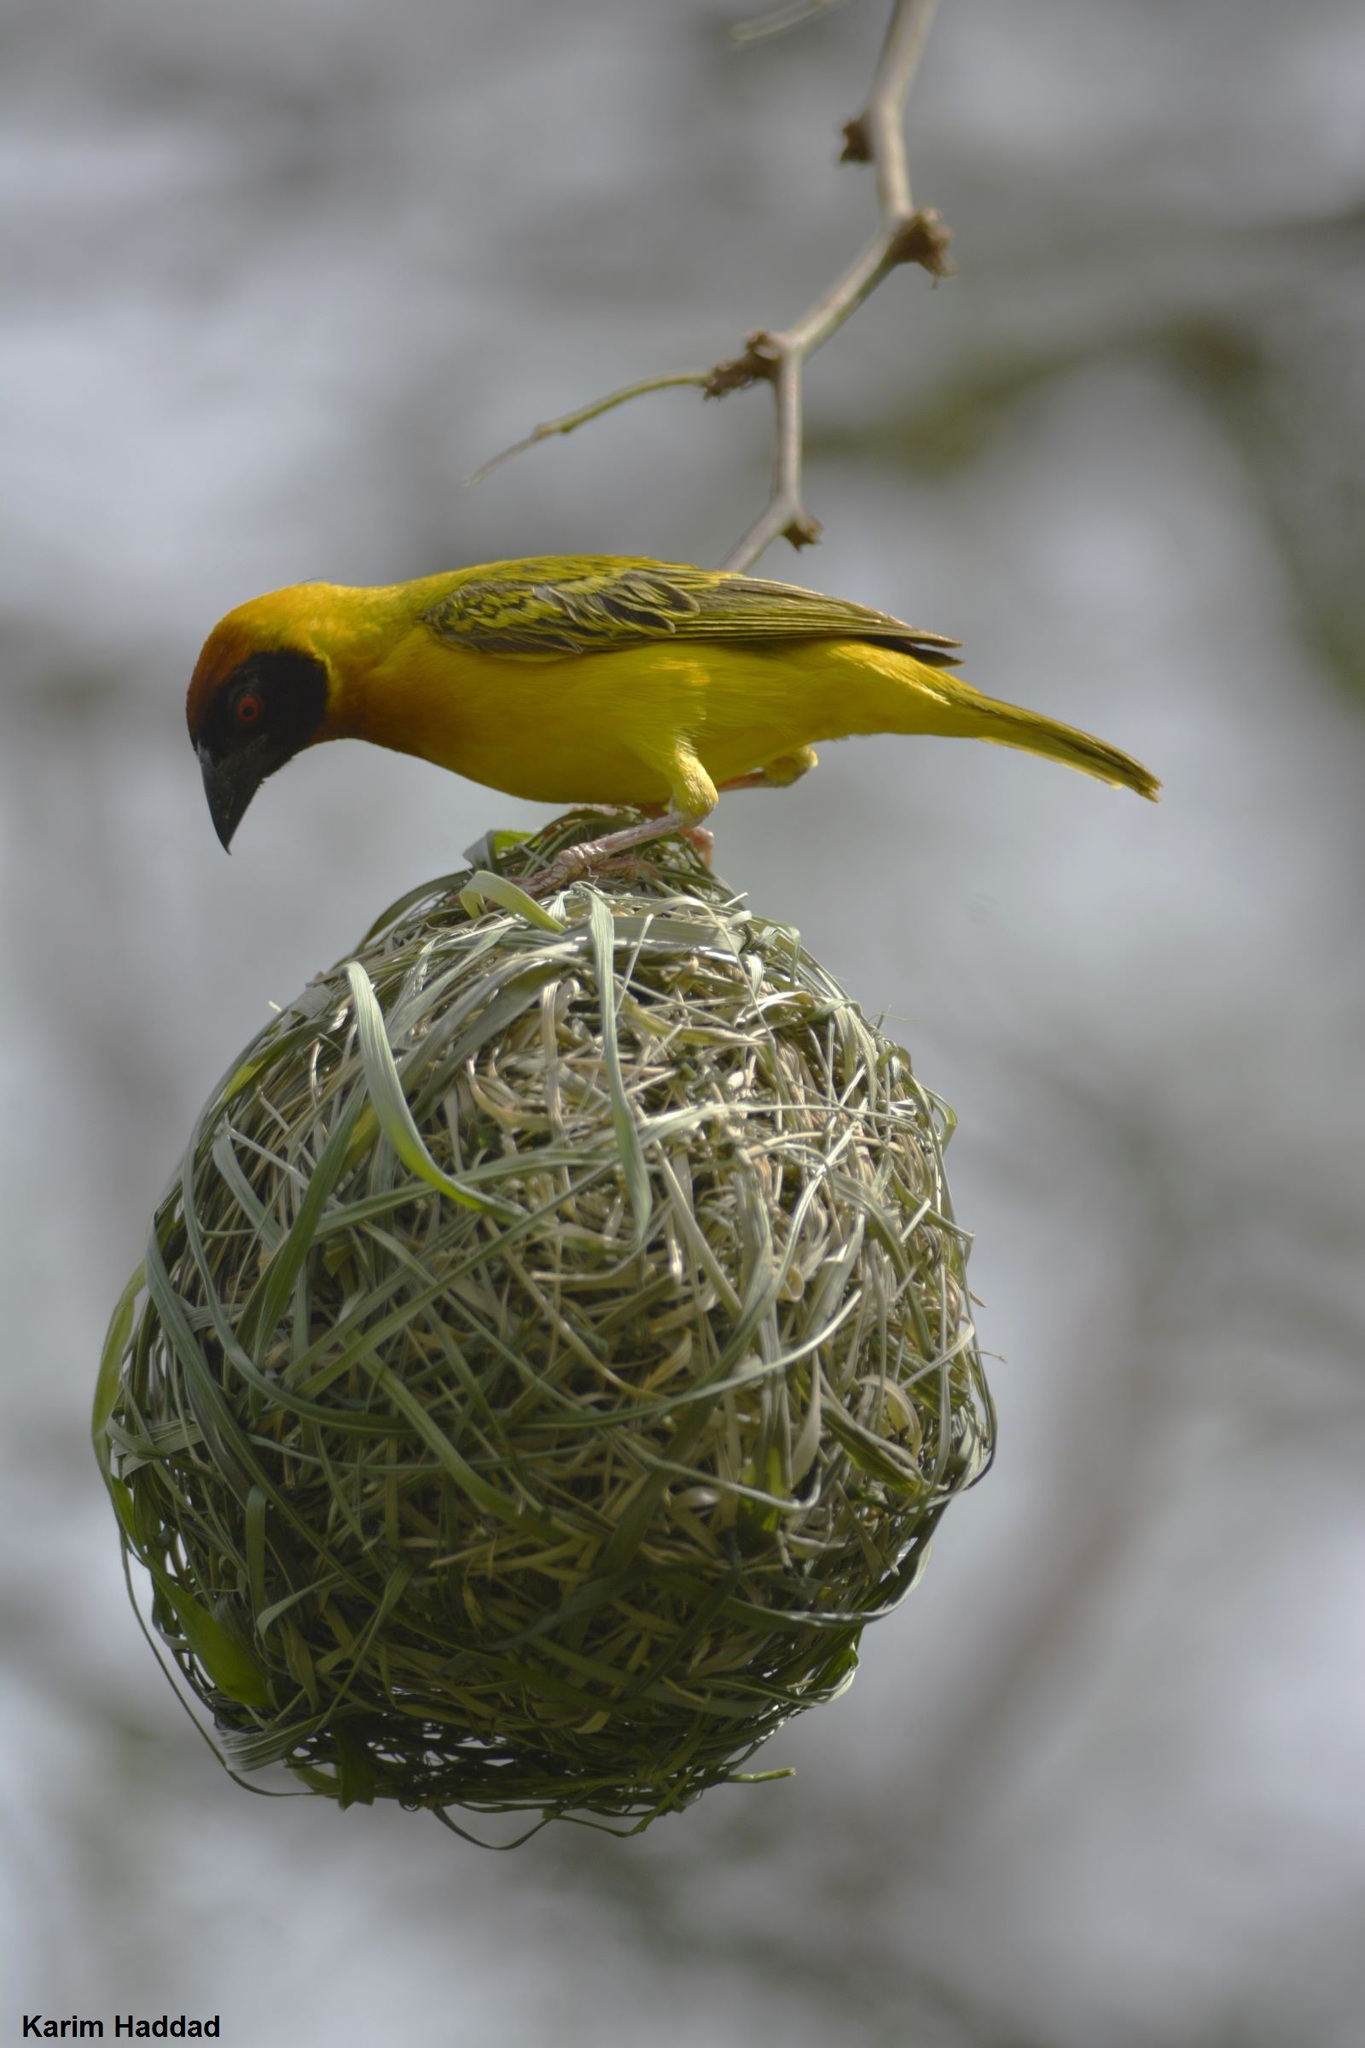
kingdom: Animalia
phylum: Chordata
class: Aves
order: Passeriformes
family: Ploceidae
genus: Ploceus
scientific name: Ploceus vitellinus
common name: Vitelline masked weaver
